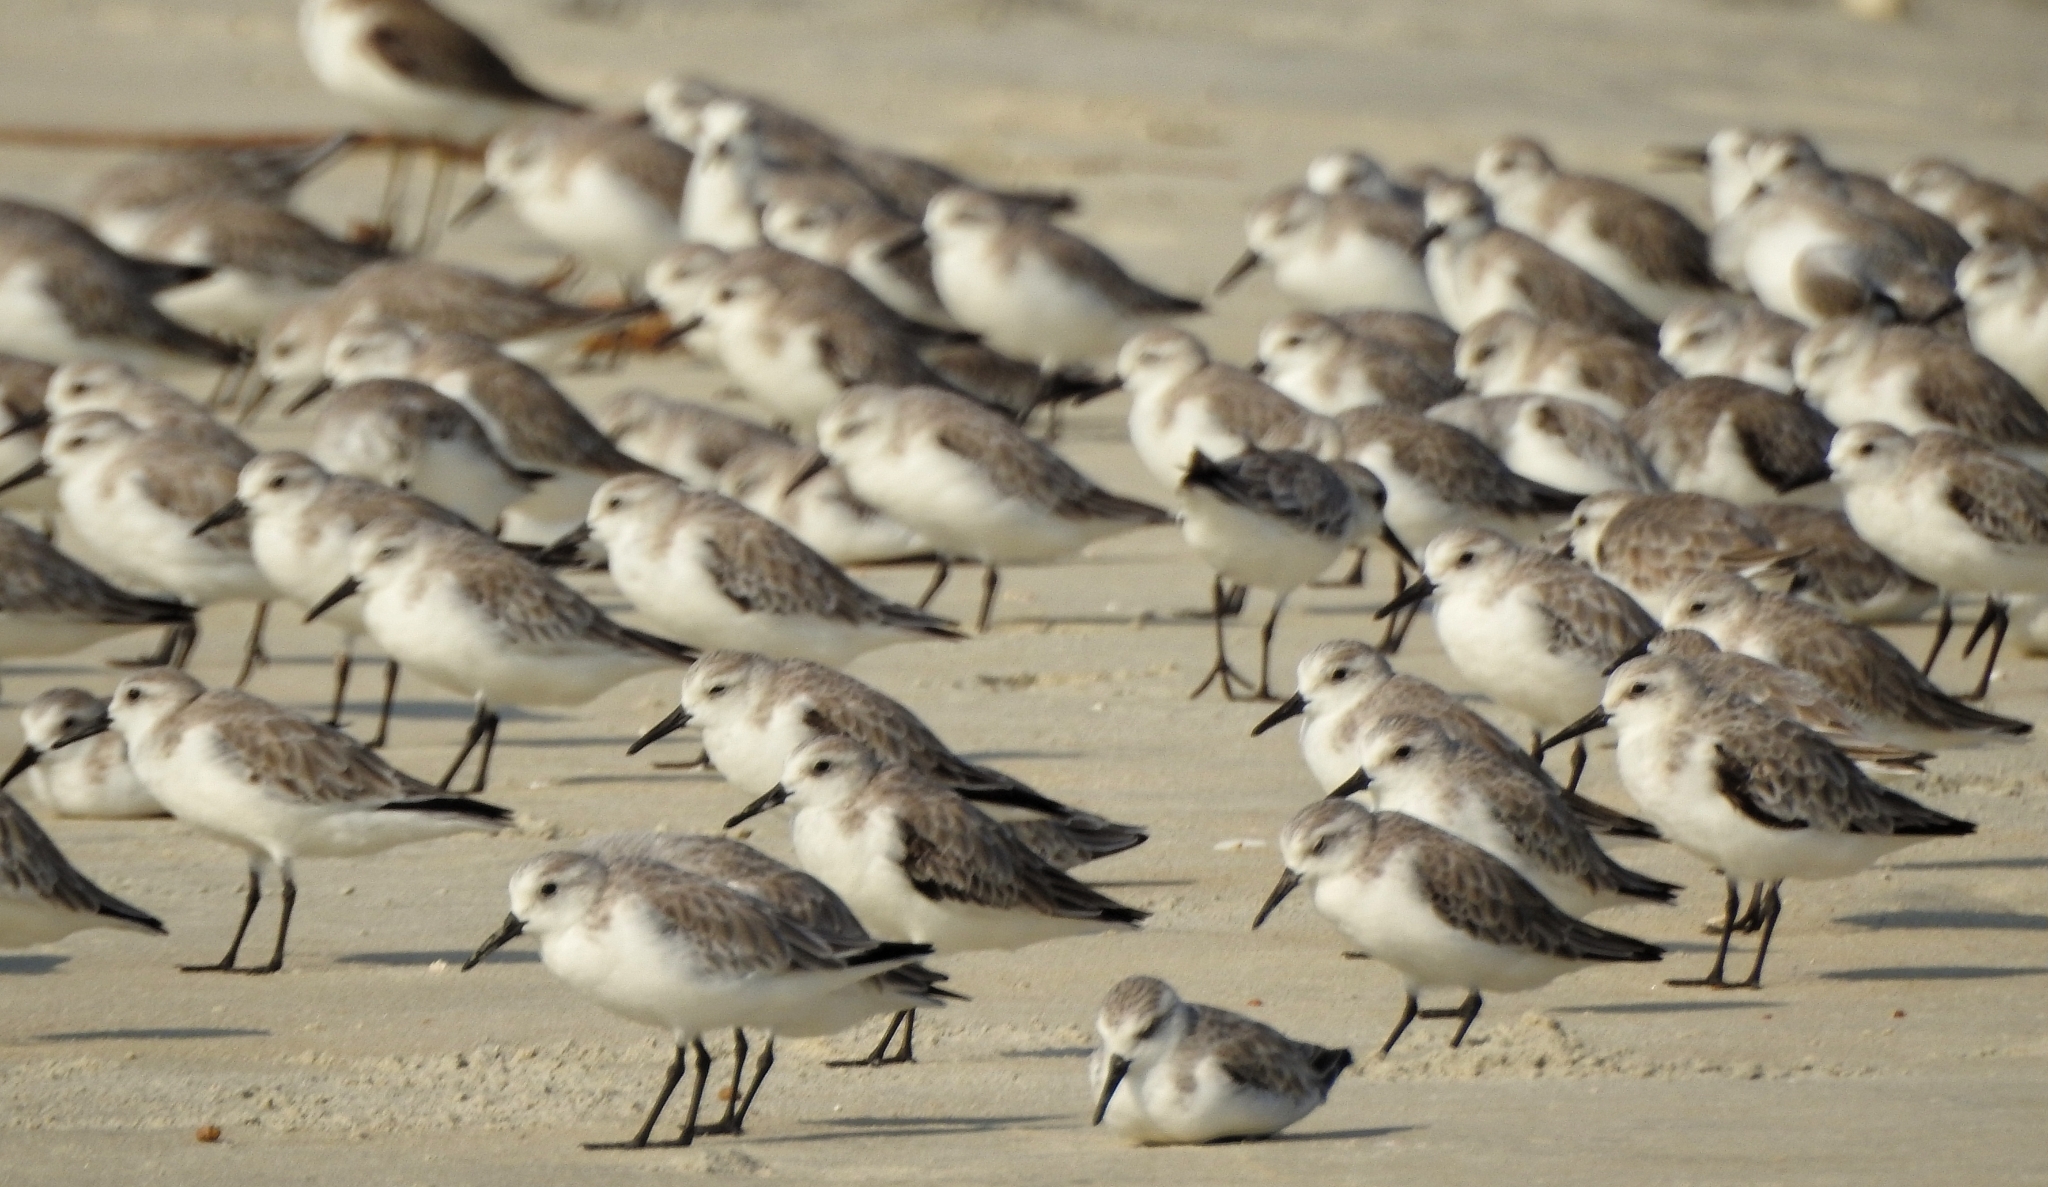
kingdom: Animalia
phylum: Chordata
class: Aves
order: Charadriiformes
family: Scolopacidae
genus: Calidris
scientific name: Calidris alba
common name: Sanderling
